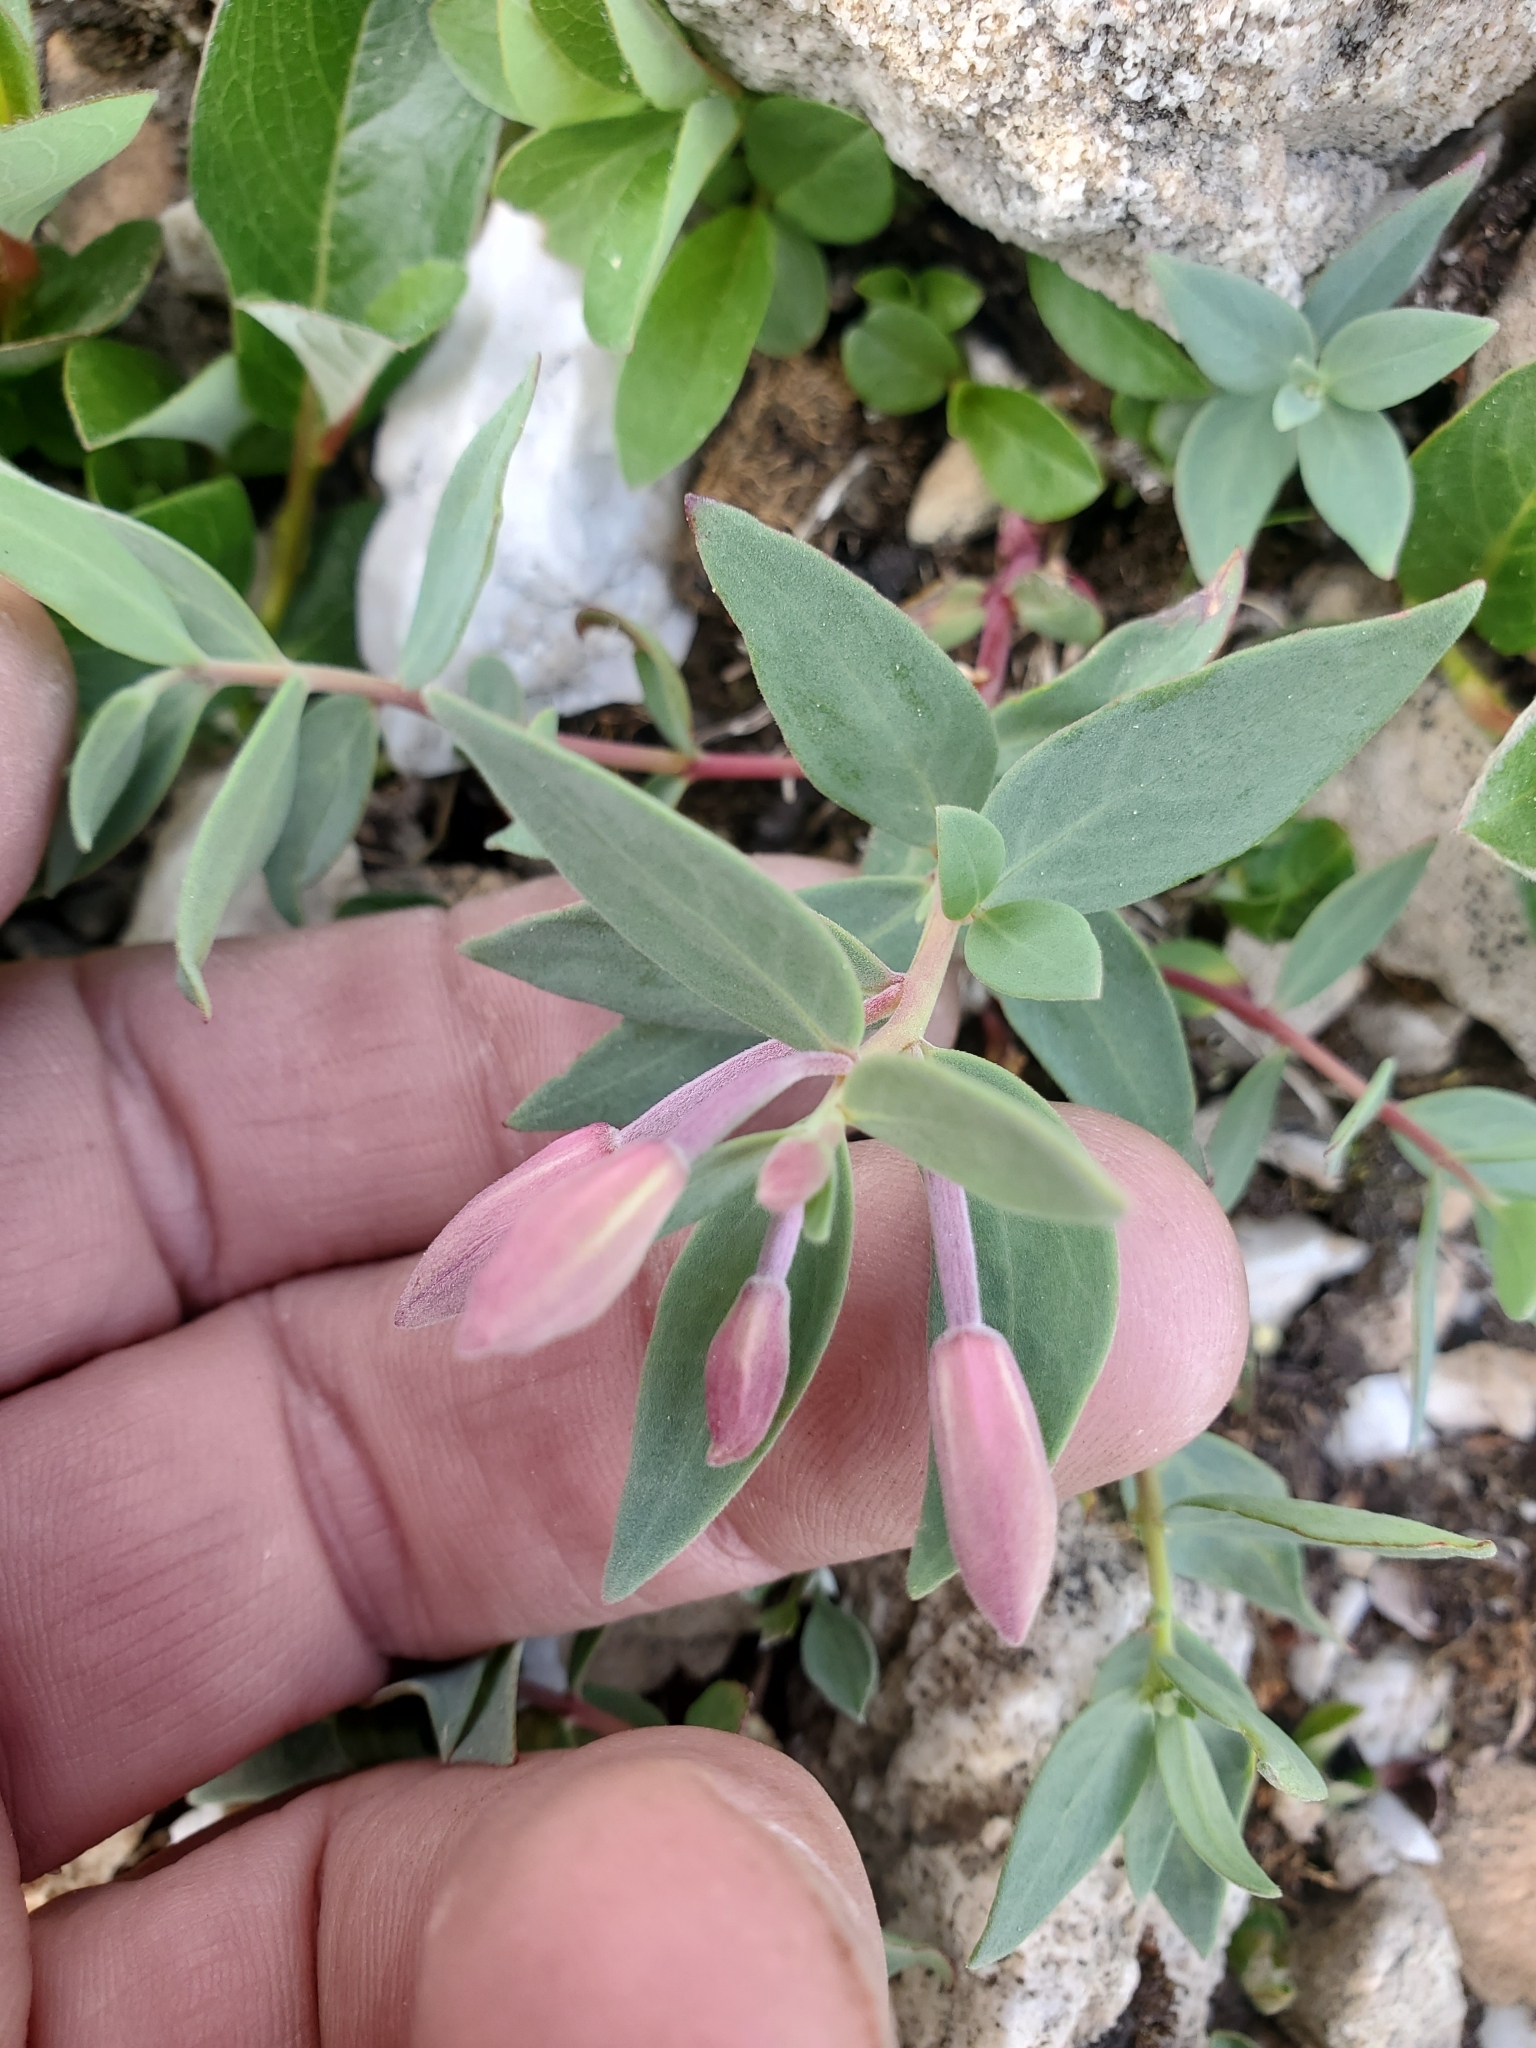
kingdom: Plantae
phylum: Tracheophyta
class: Magnoliopsida
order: Myrtales
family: Onagraceae
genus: Chamaenerion
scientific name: Chamaenerion latifolium
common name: Dwarf fireweed
